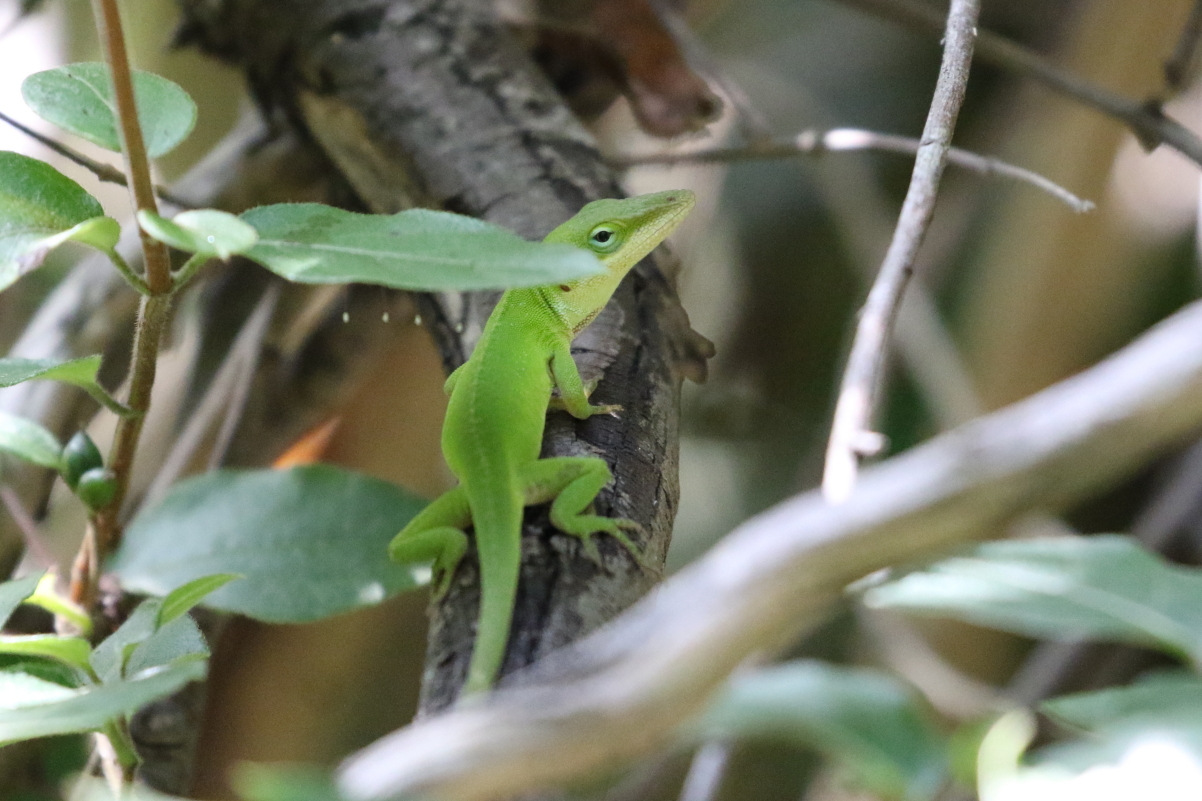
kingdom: Animalia
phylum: Chordata
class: Squamata
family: Dactyloidae
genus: Anolis
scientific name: Anolis carolinensis
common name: Green anole
